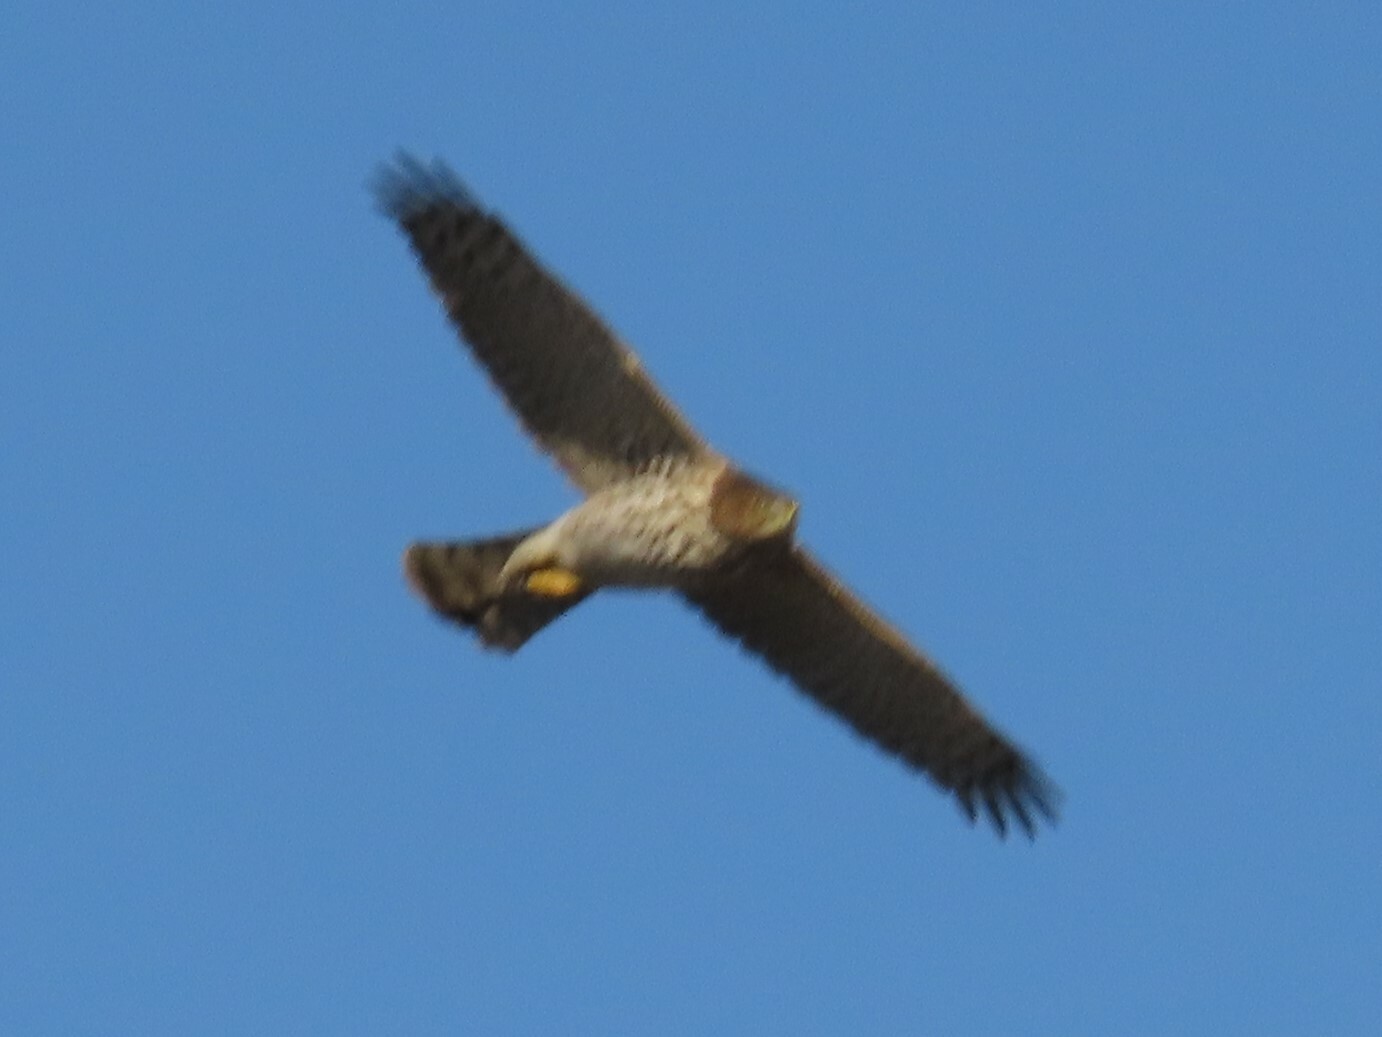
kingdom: Animalia
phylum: Chordata
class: Aves
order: Accipitriformes
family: Accipitridae
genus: Accipiter
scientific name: Accipiter cooperii
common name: Cooper's hawk
